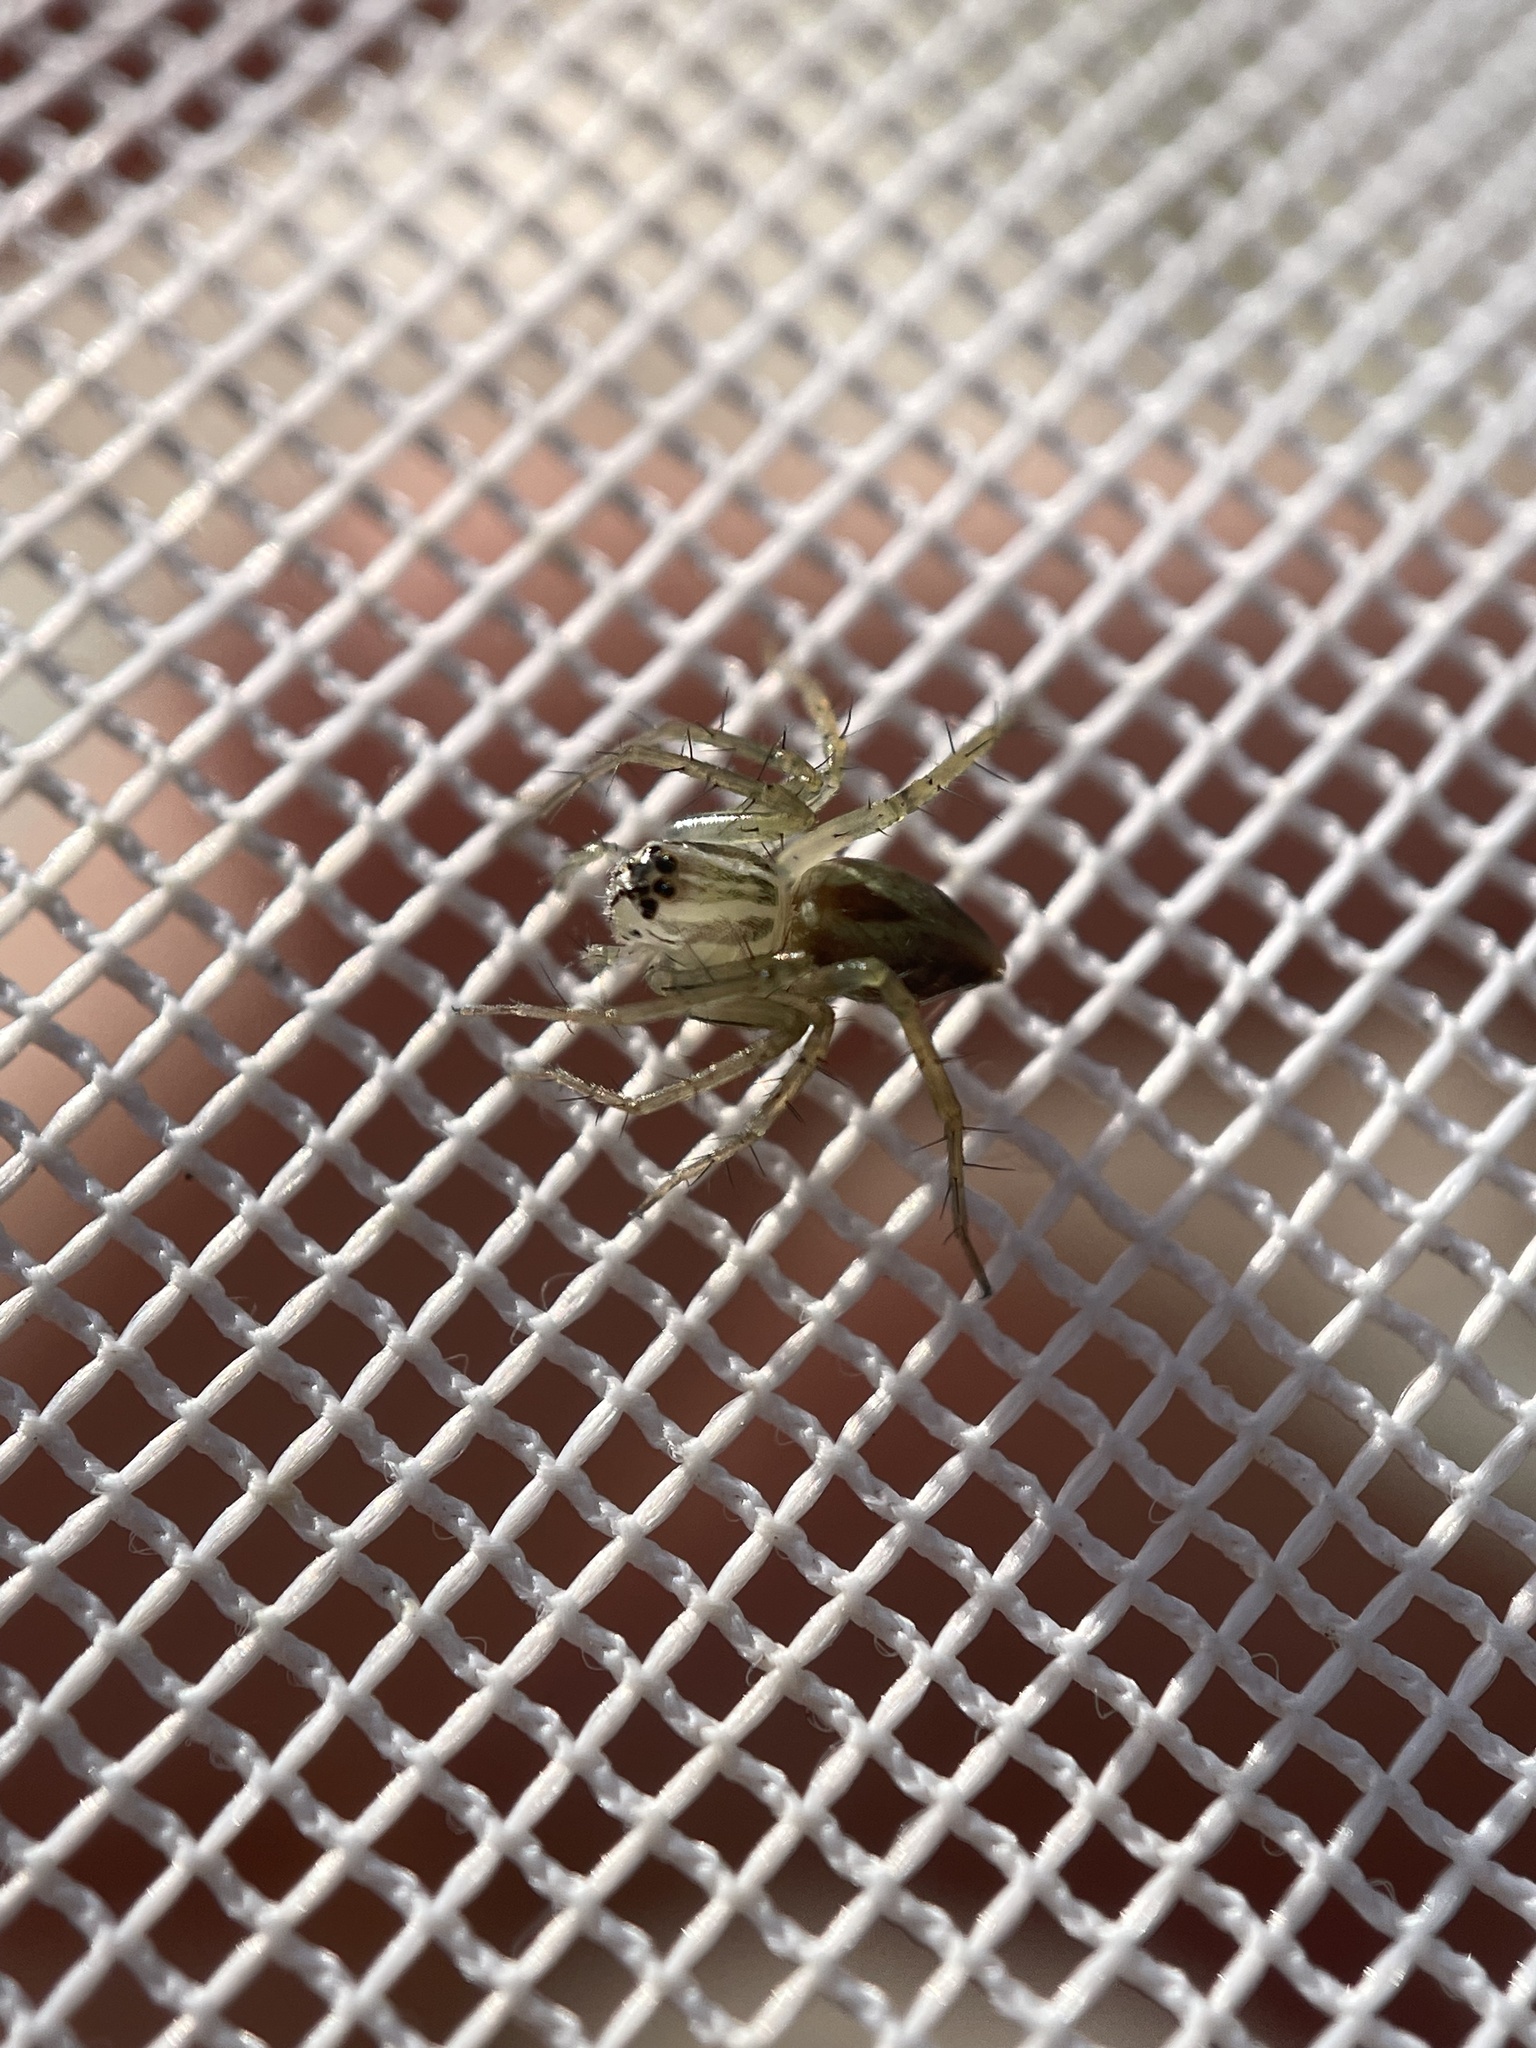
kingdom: Animalia
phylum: Arthropoda
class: Arachnida
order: Araneae
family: Oxyopidae
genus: Oxyopes
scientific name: Oxyopes salticus
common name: Lynx spiders
